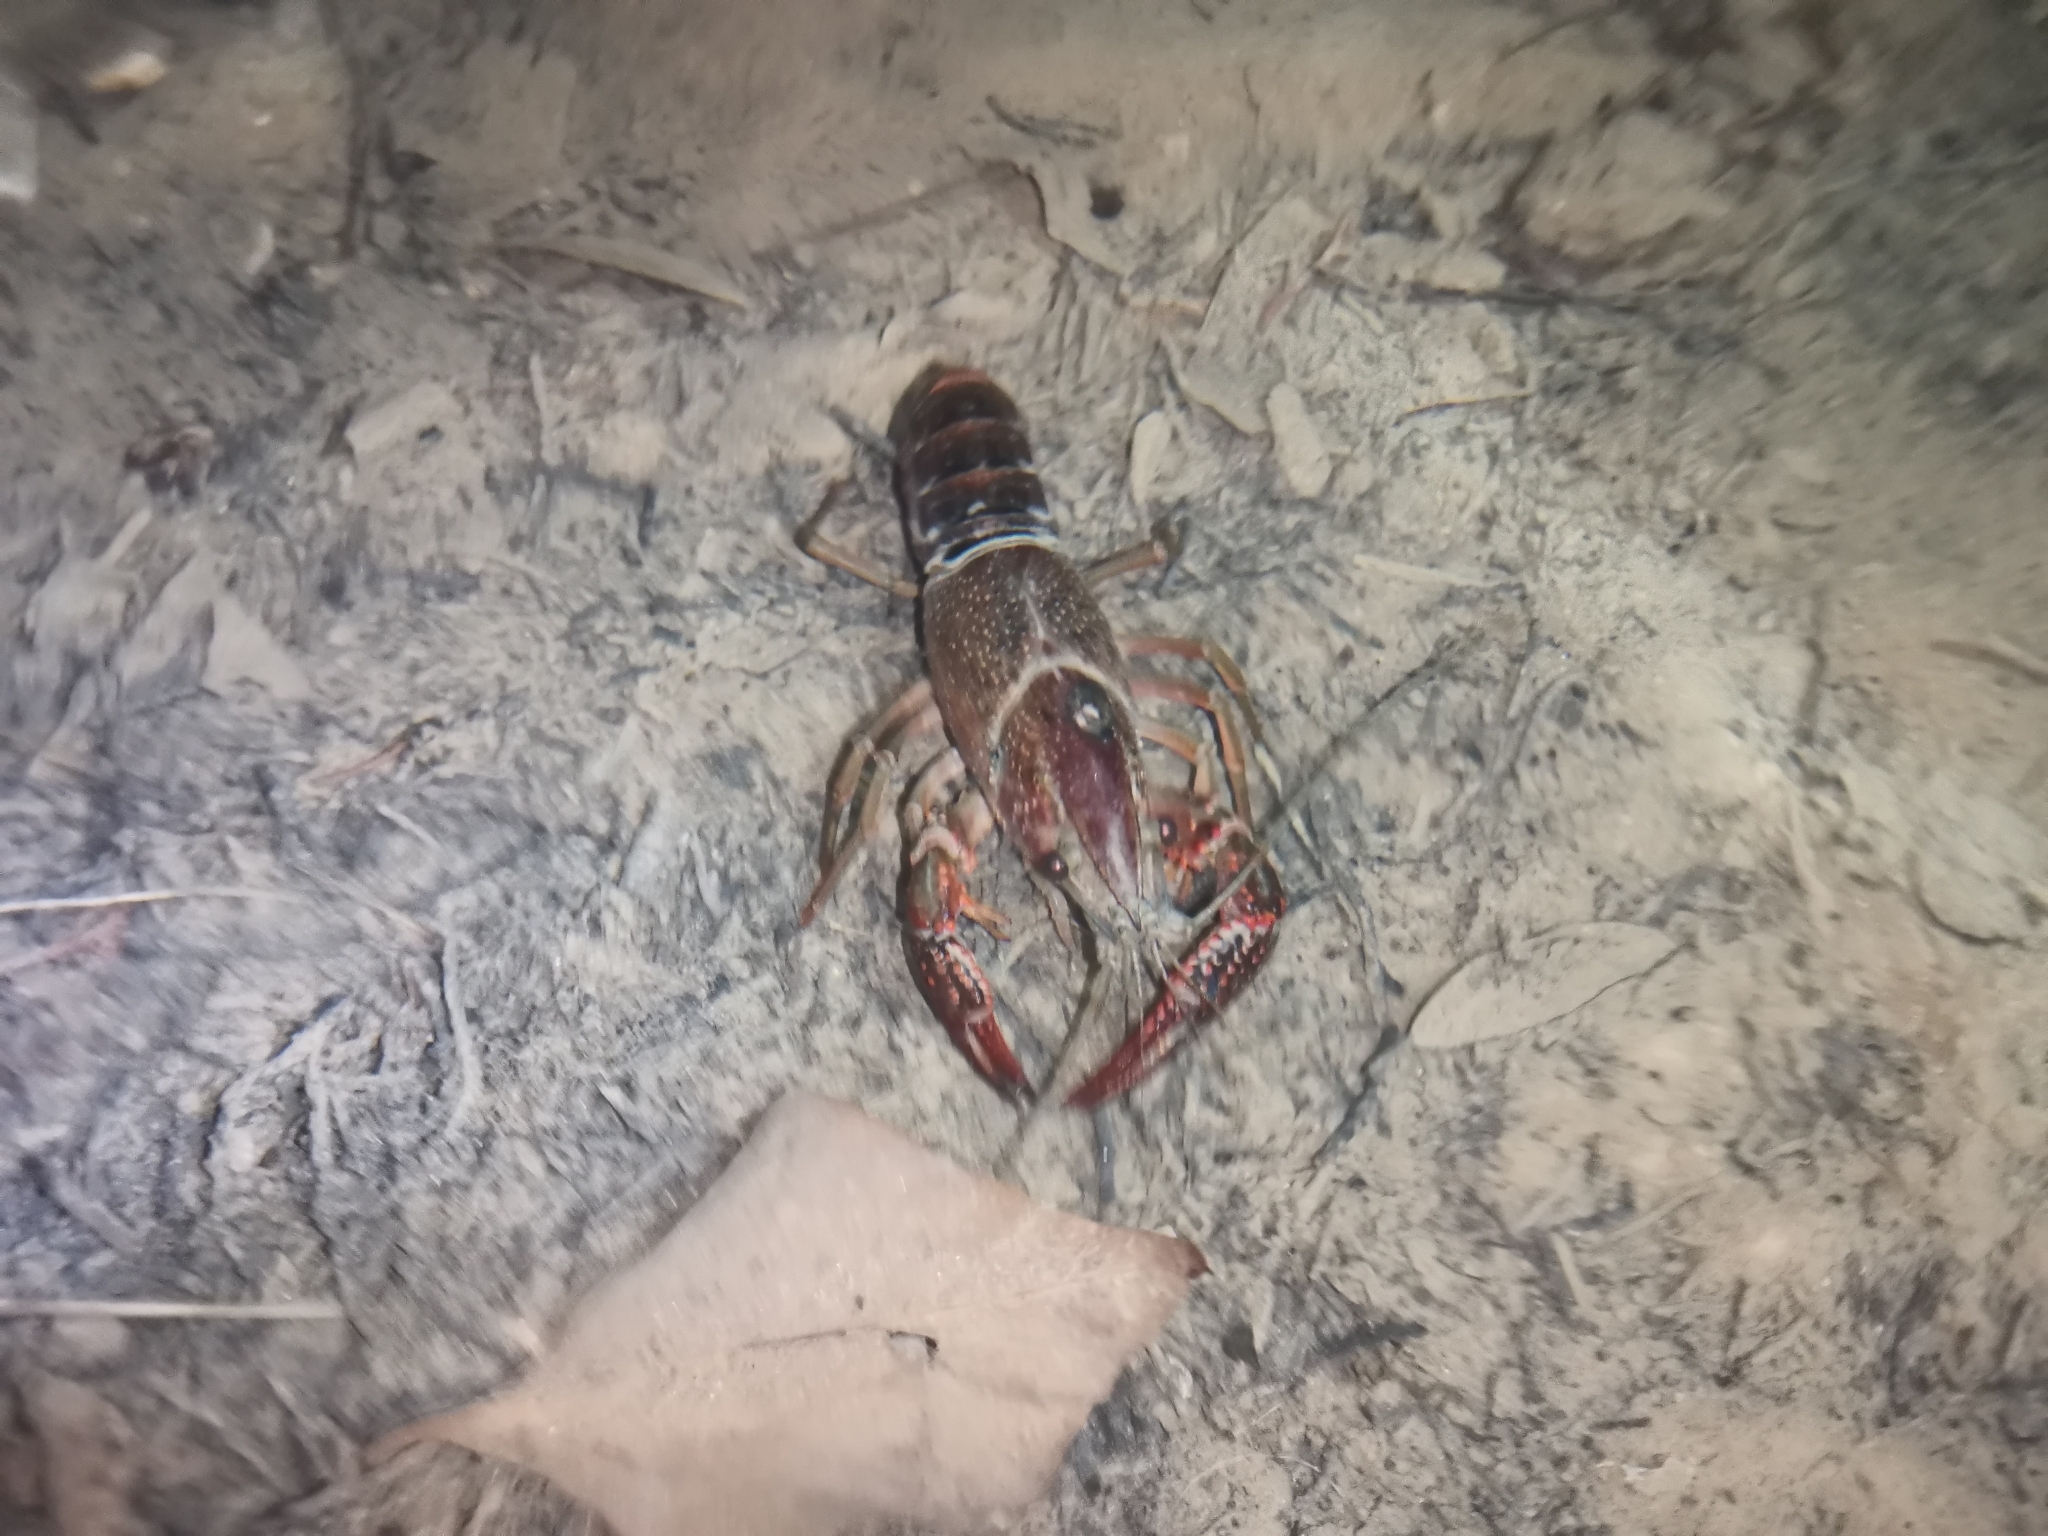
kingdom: Animalia
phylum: Arthropoda
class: Malacostraca
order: Decapoda
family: Cambaridae
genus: Procambarus
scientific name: Procambarus clarkii
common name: Red swamp crayfish
